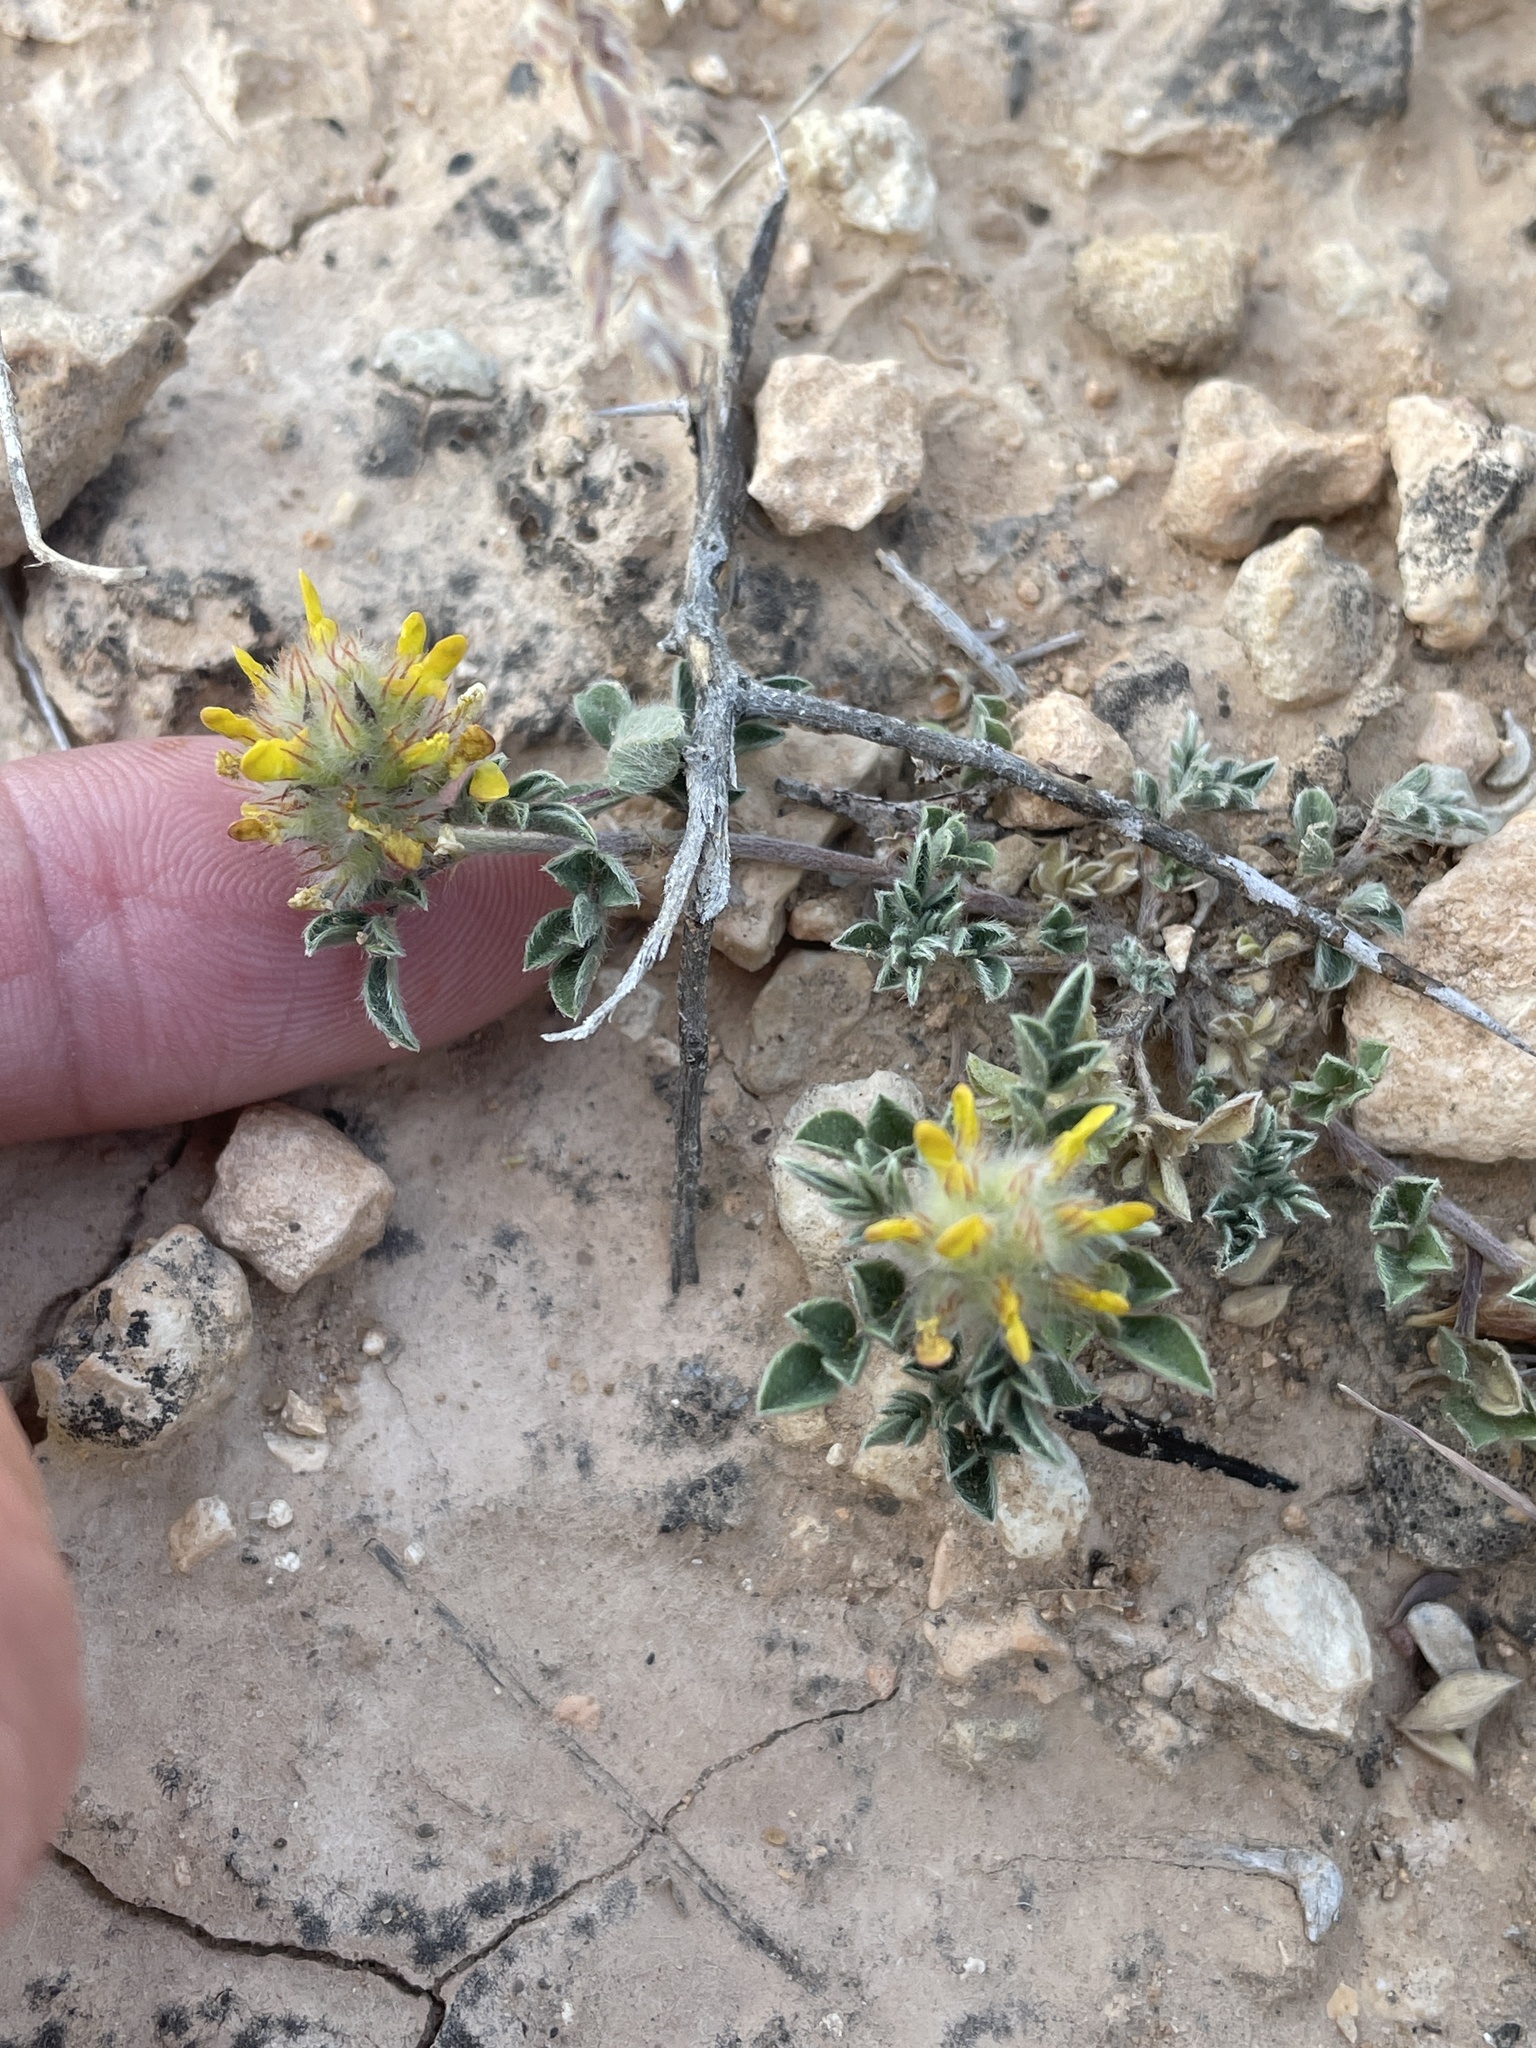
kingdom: Plantae
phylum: Tracheophyta
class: Magnoliopsida
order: Fabales
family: Fabaceae
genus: Dalea
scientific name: Dalea nana
